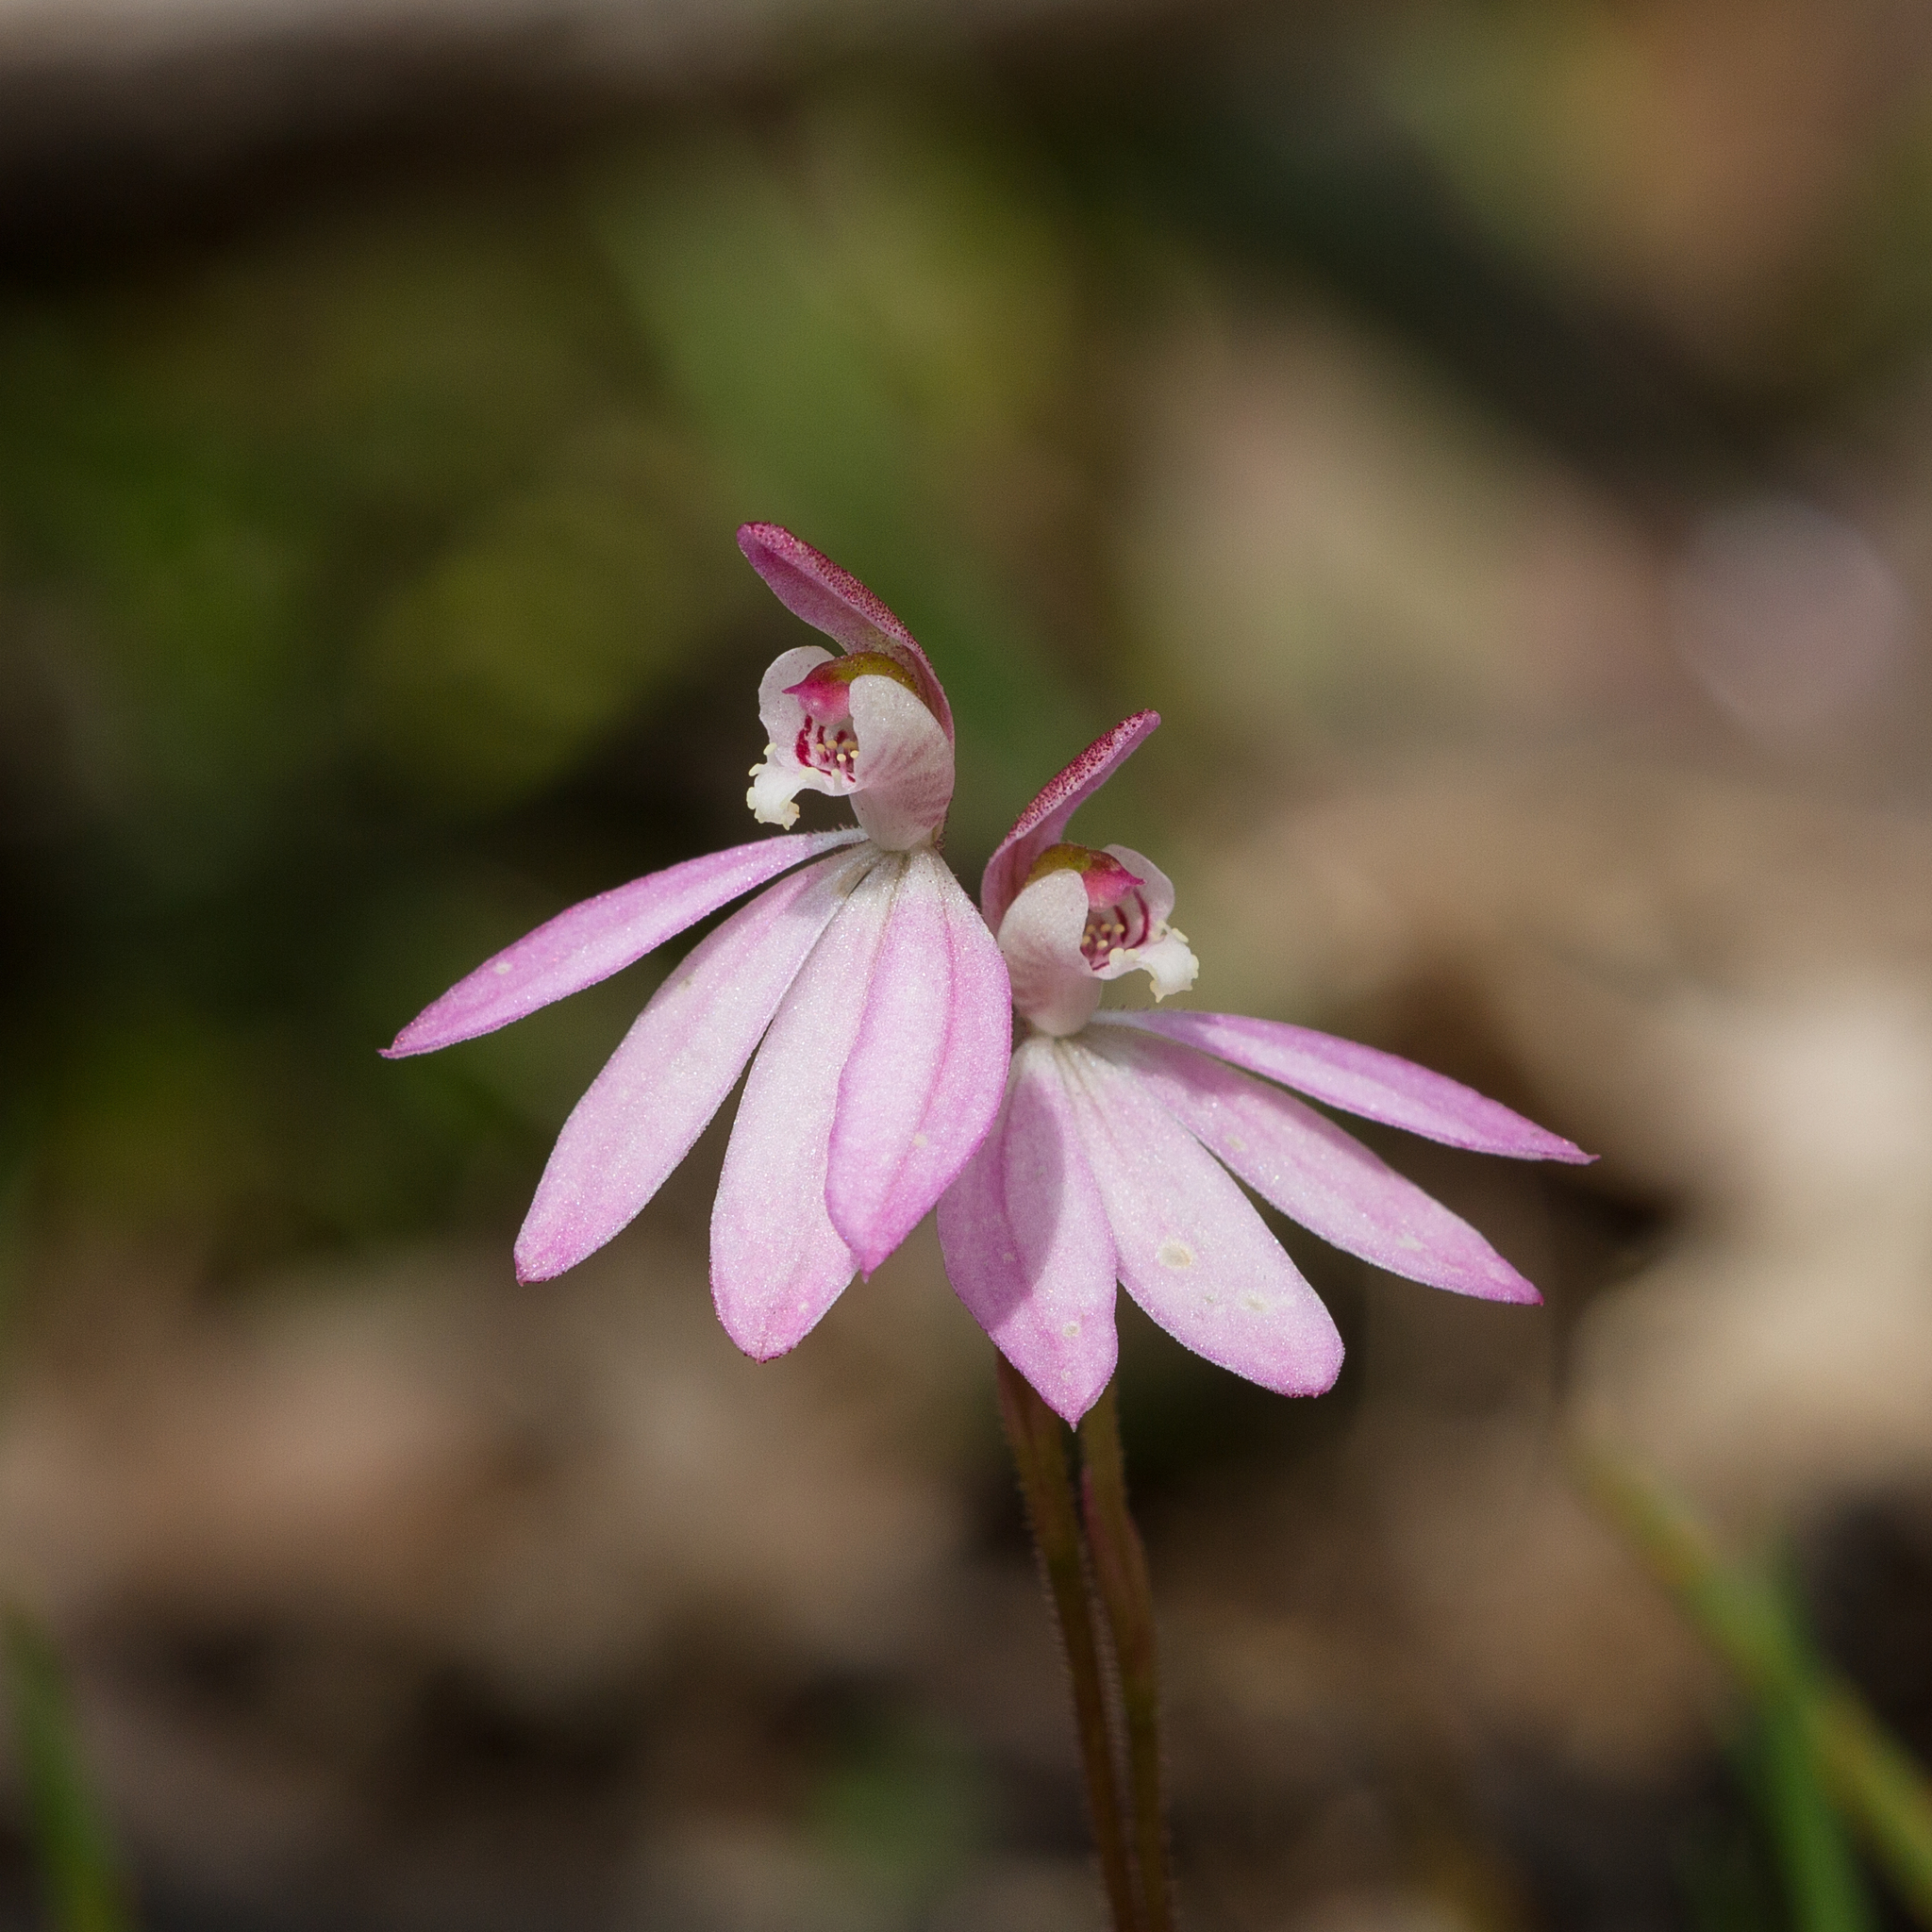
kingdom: Plantae
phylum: Tracheophyta
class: Liliopsida
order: Asparagales
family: Orchidaceae
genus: Caladenia
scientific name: Caladenia carnea
